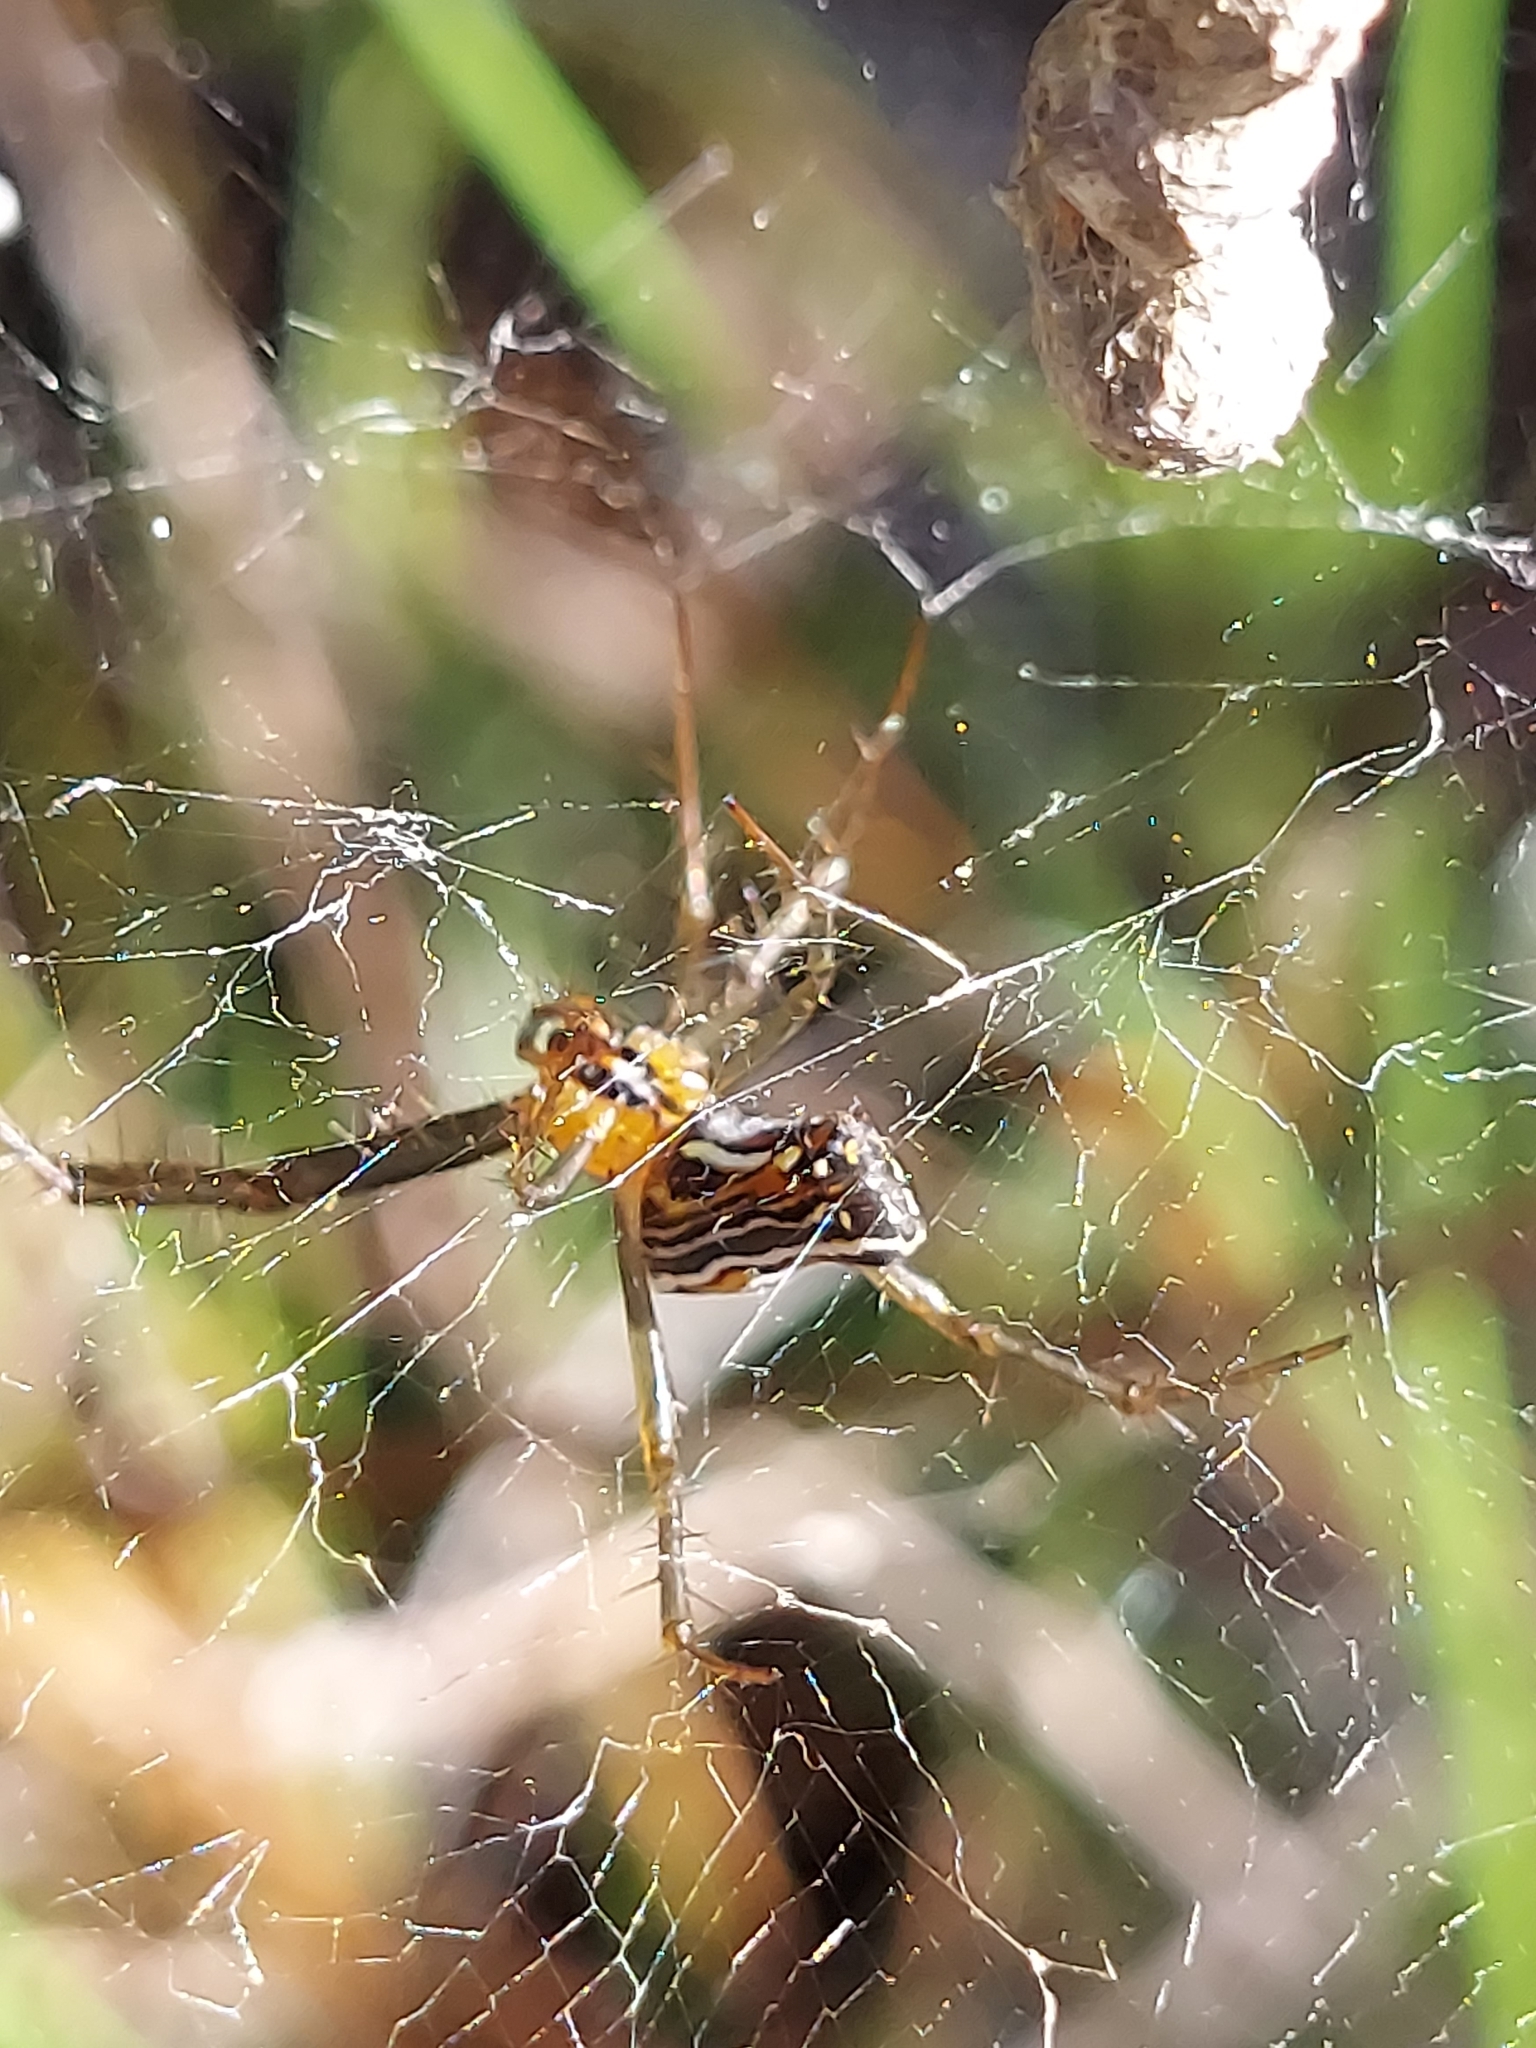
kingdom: Animalia
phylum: Arthropoda
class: Arachnida
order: Araneae
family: Araneidae
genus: Mecynogea
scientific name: Mecynogea lemniscata
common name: Orb weavers
